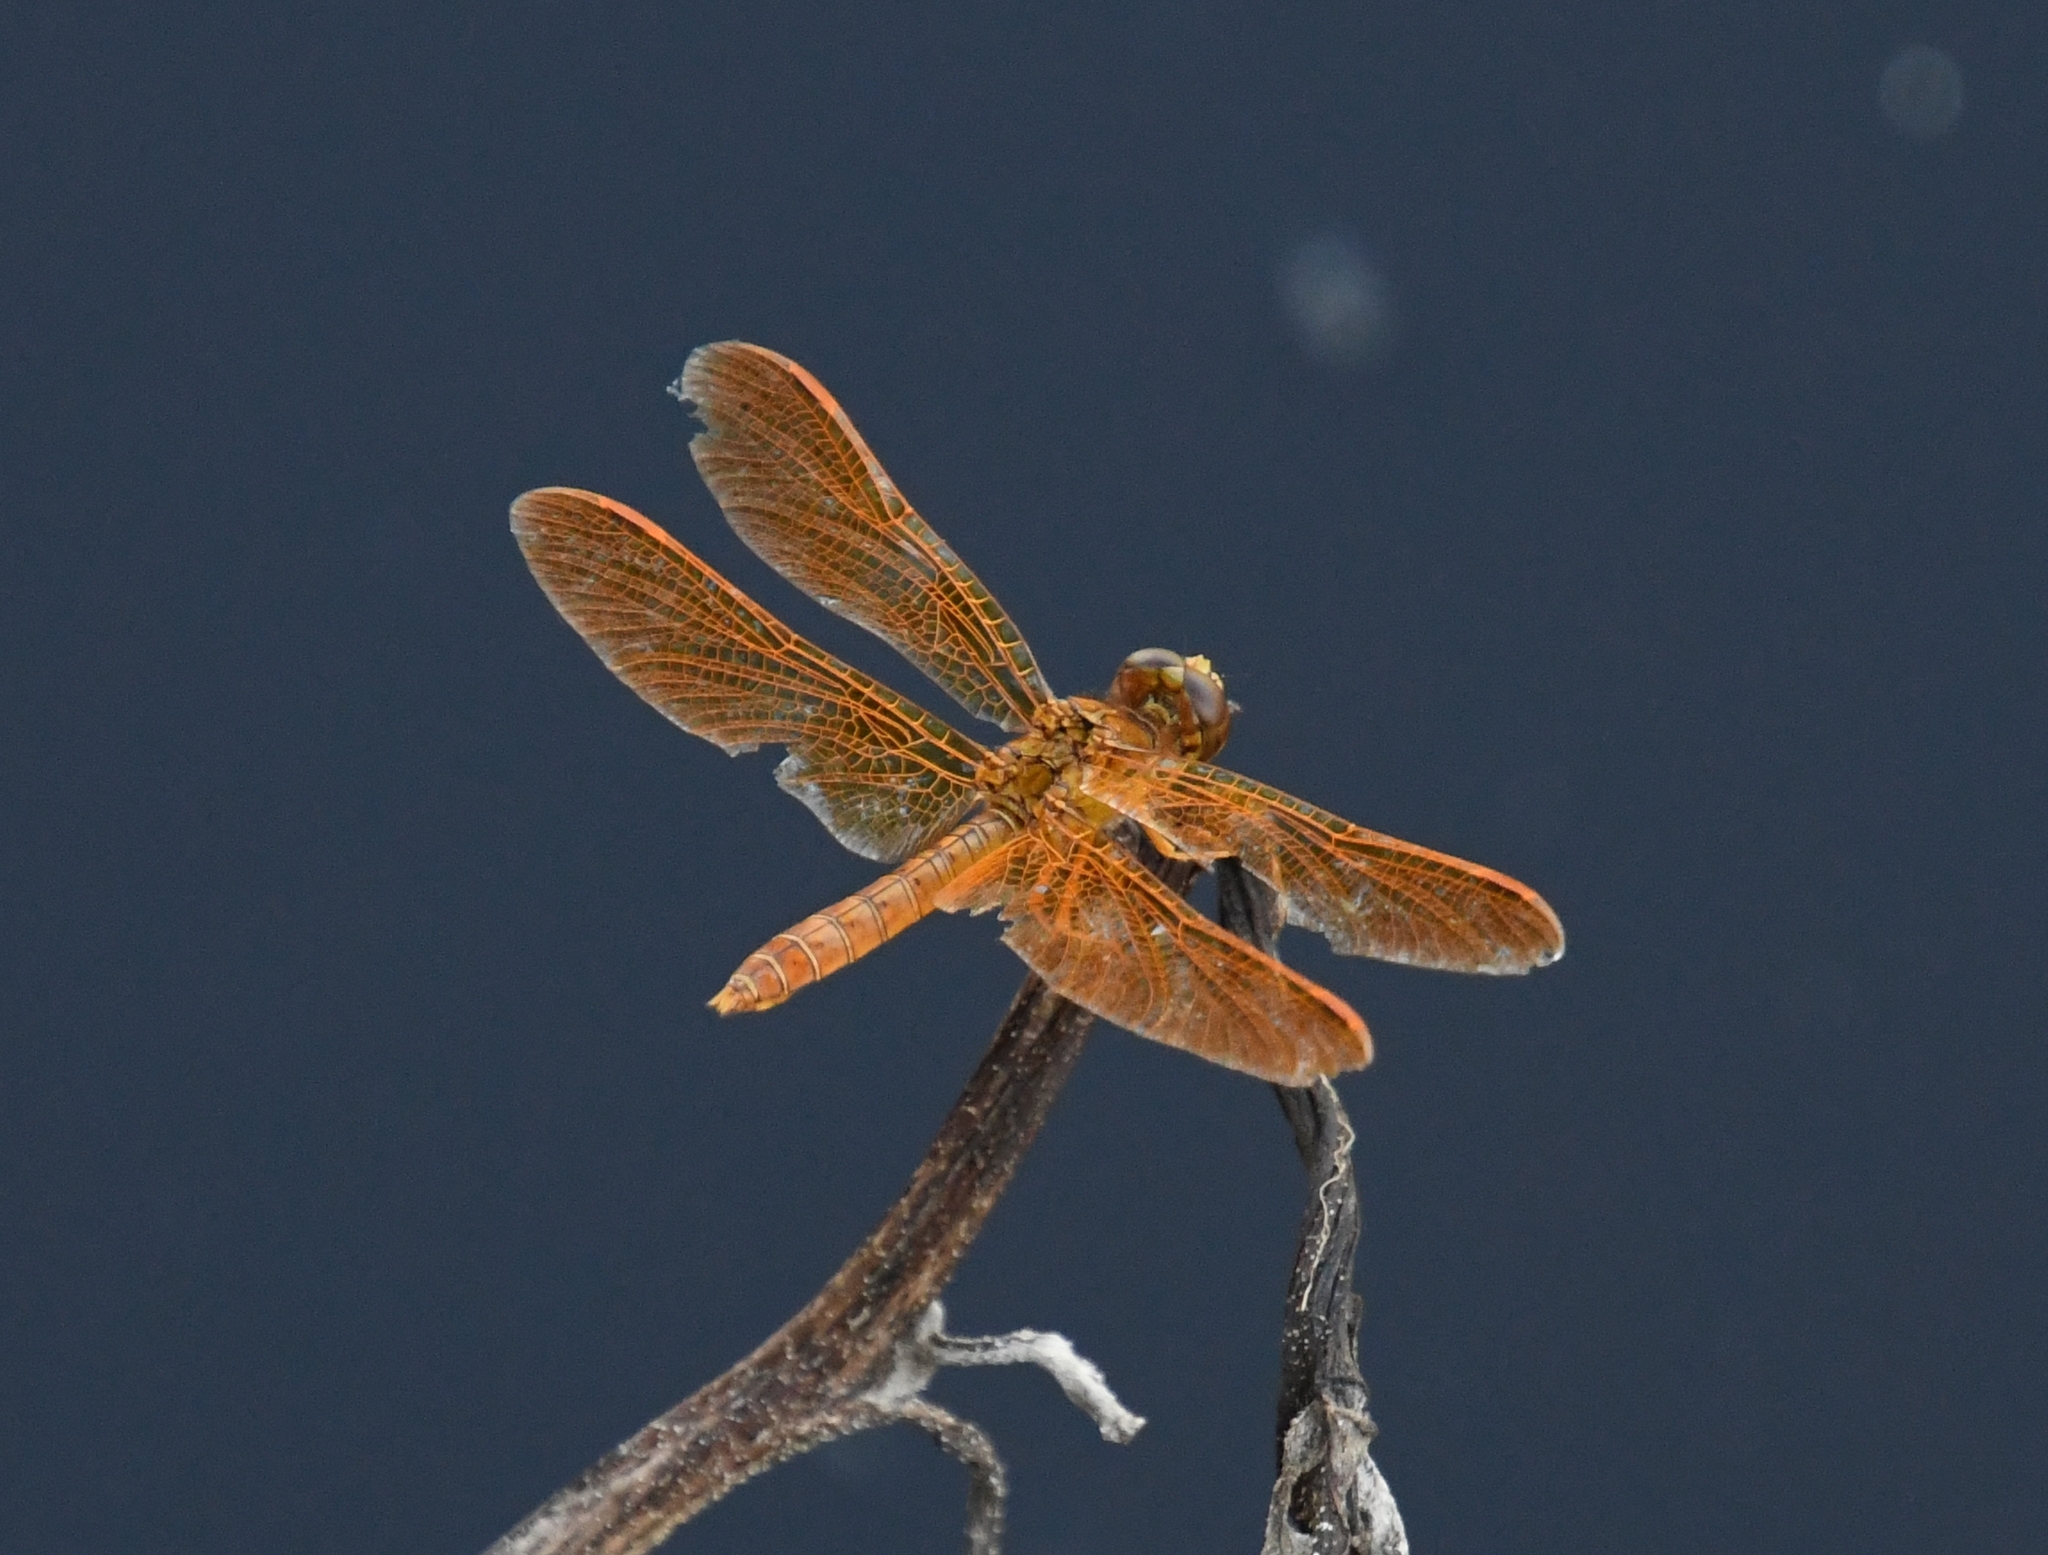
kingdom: Animalia
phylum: Arthropoda
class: Insecta
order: Odonata
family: Libellulidae
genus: Perithemis
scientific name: Perithemis intensa
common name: Mexican amberwing
